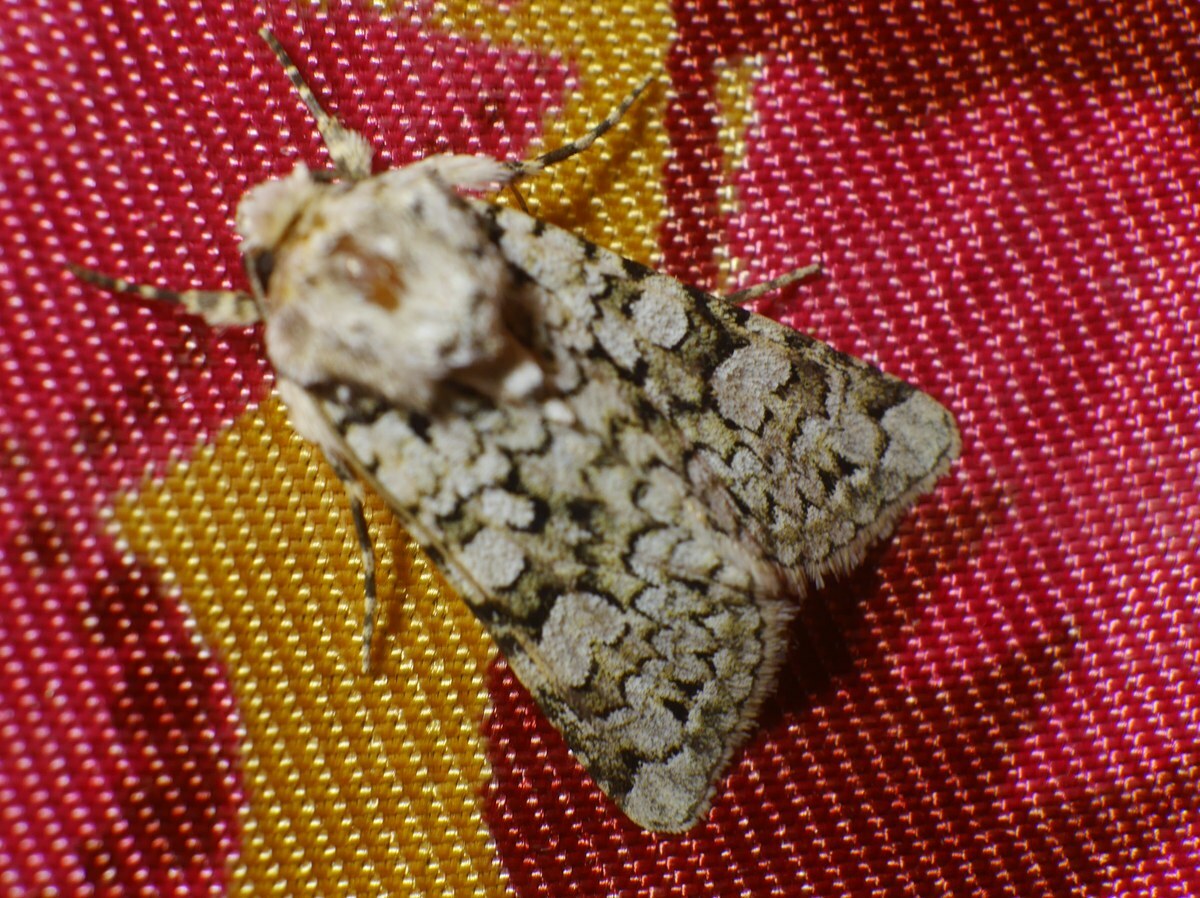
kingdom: Animalia
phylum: Arthropoda
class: Insecta
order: Lepidoptera
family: Noctuidae
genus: Hecatera
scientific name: Hecatera cappa
